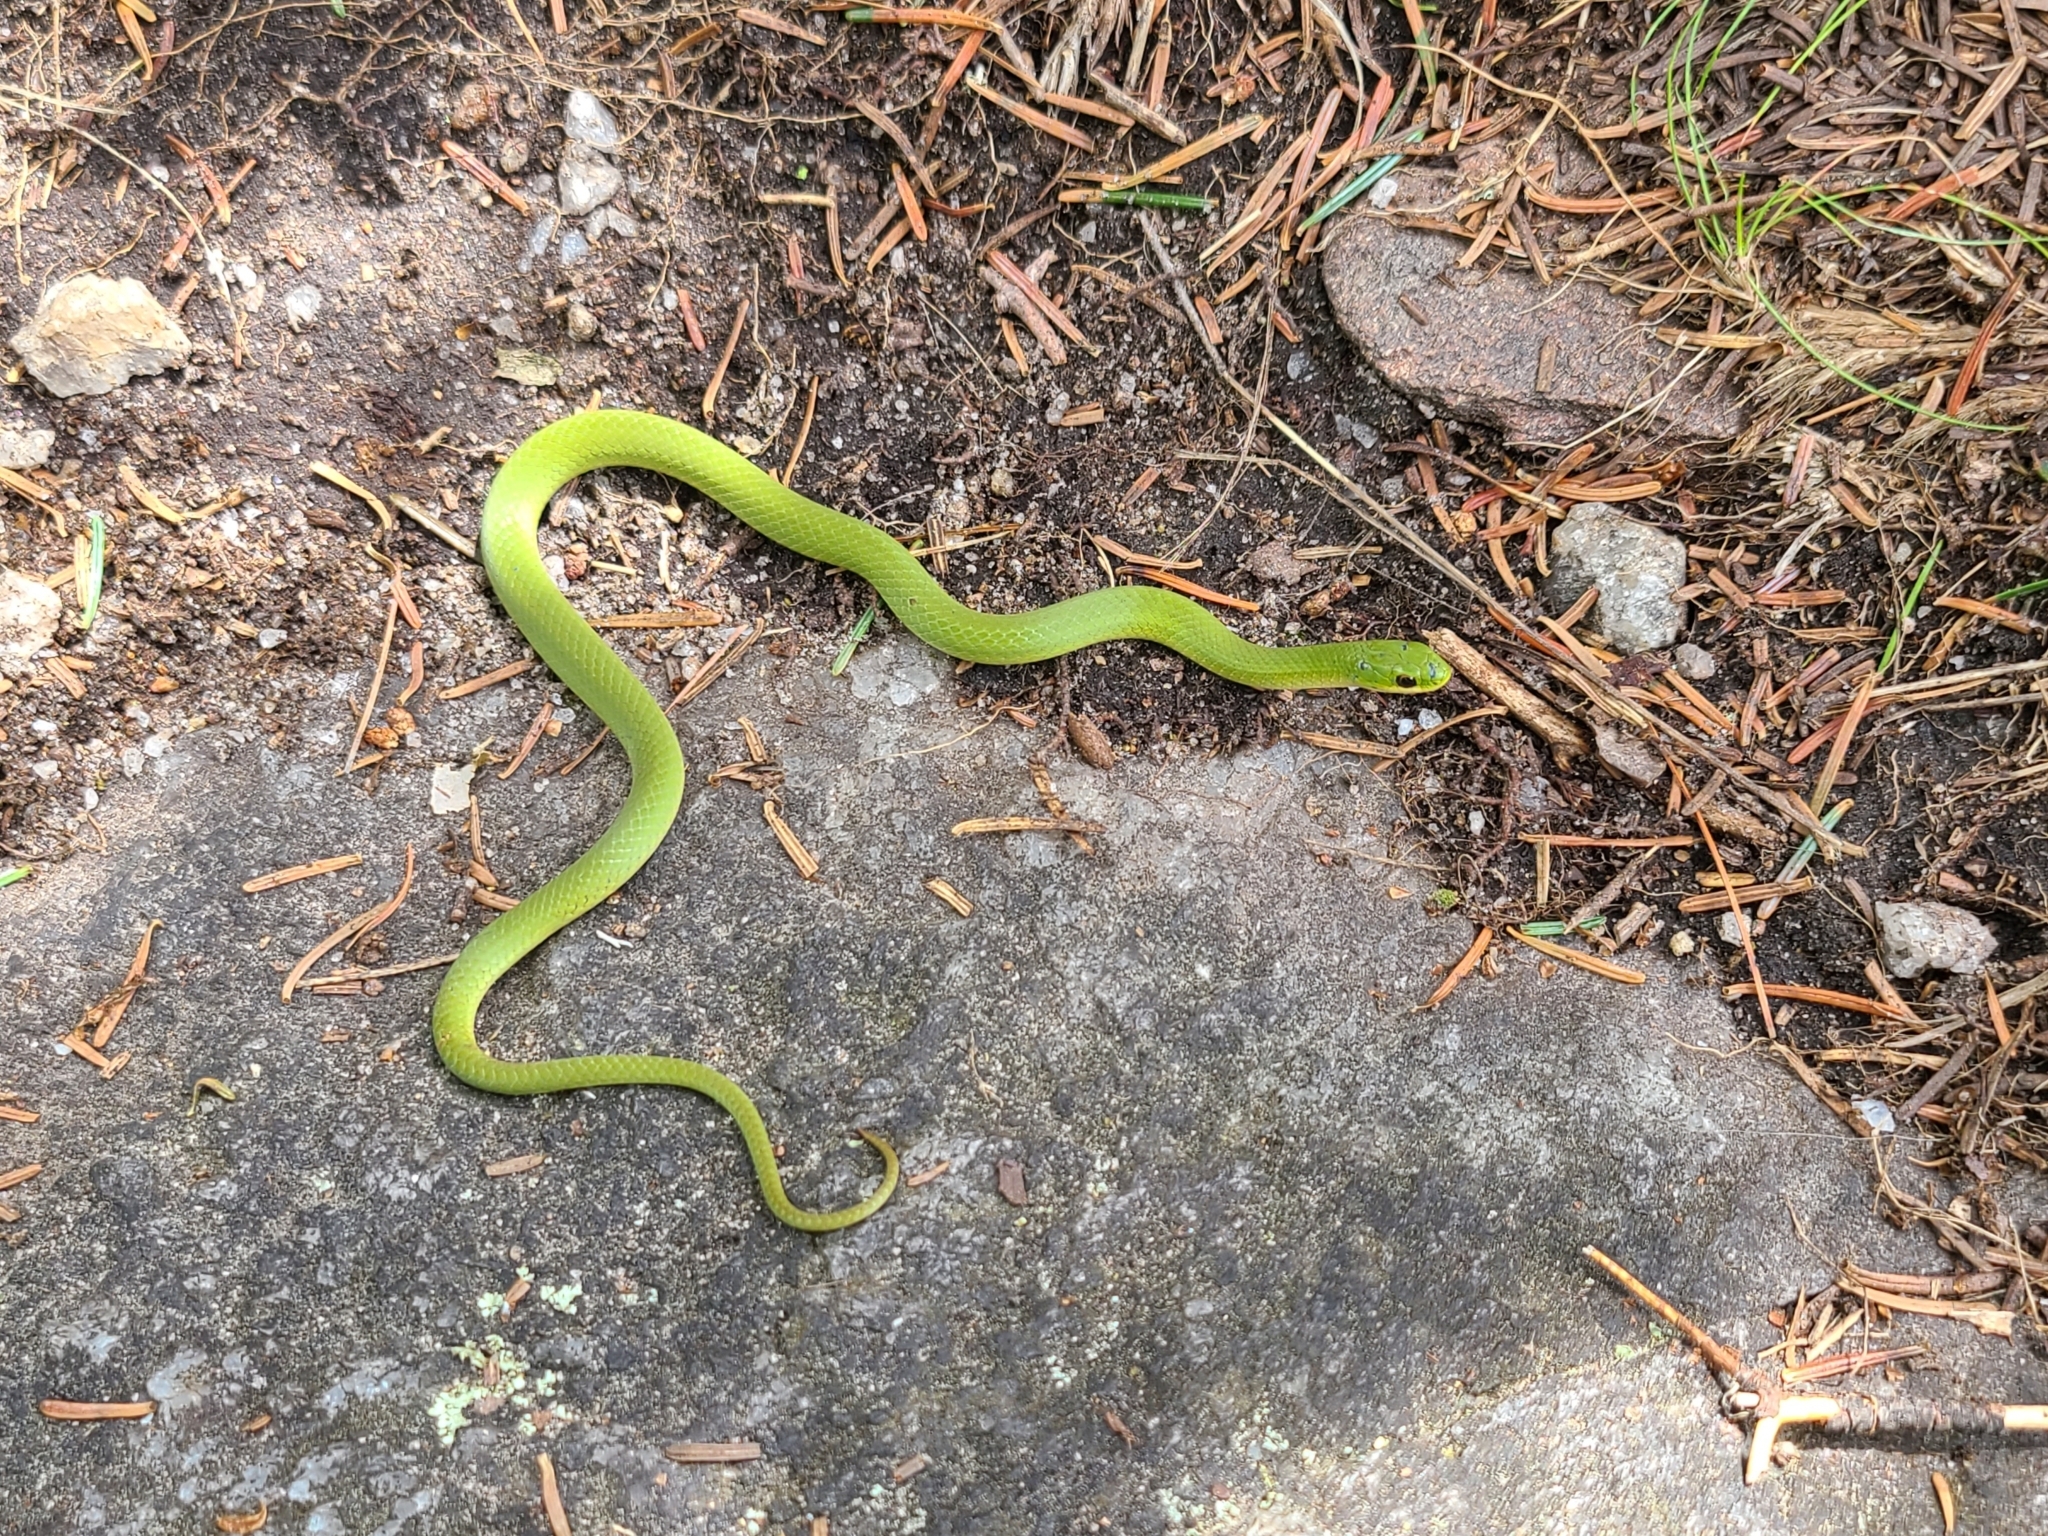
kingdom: Animalia
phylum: Chordata
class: Squamata
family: Colubridae
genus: Opheodrys
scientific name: Opheodrys vernalis
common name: Smooth green snake
